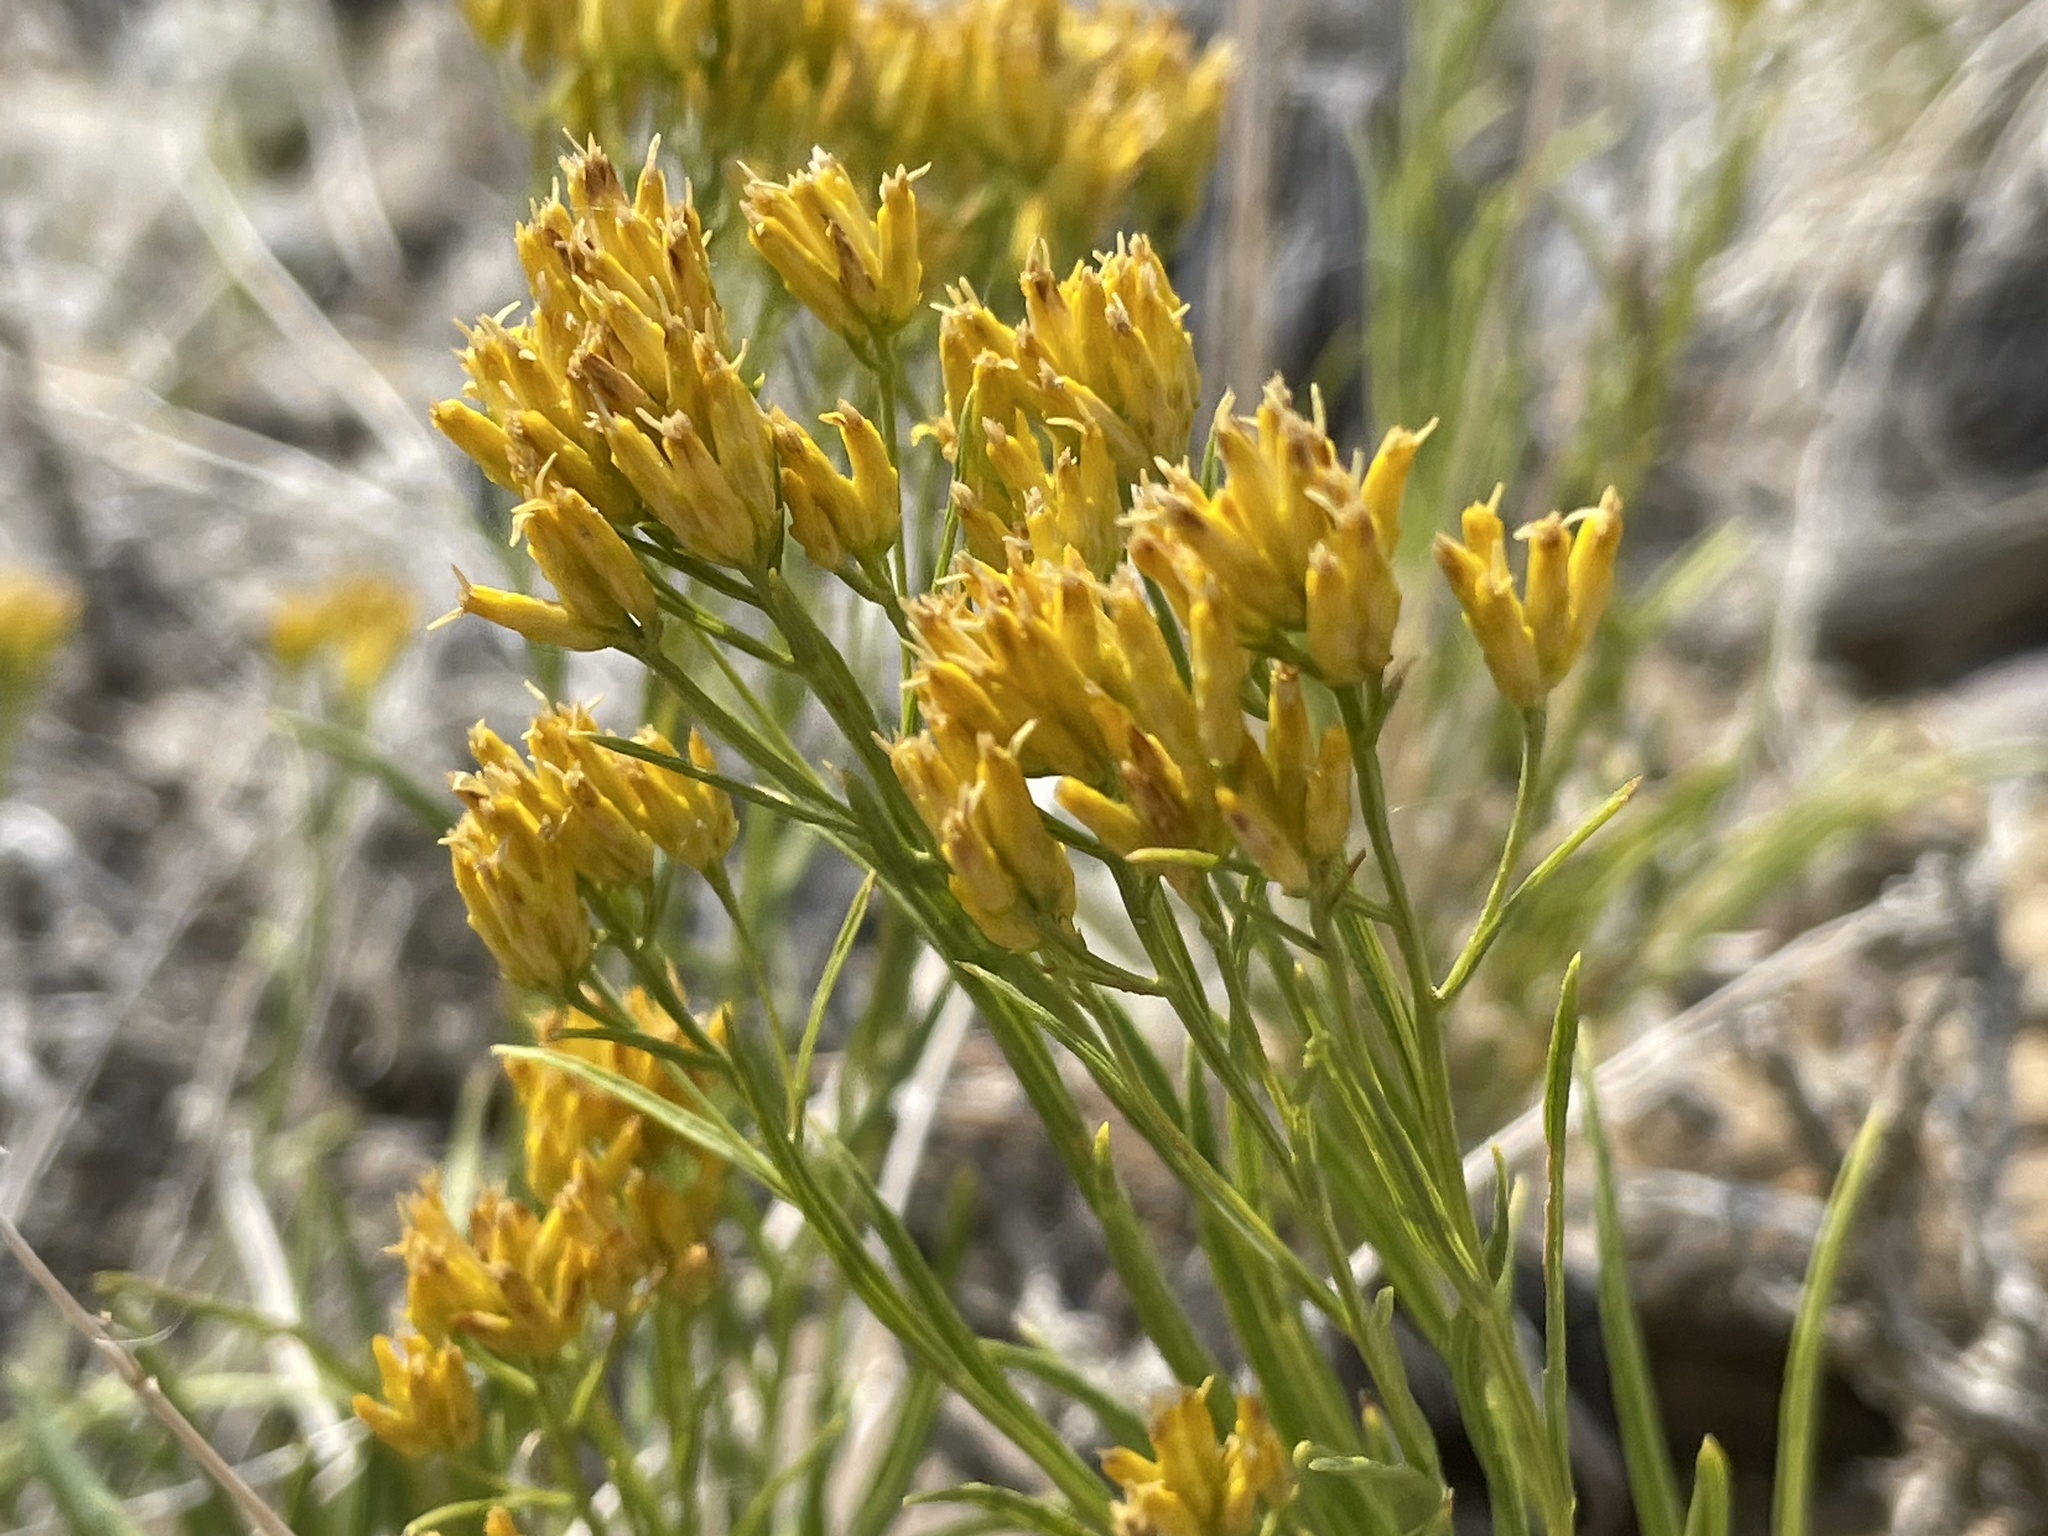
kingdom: Plantae
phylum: Tracheophyta
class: Magnoliopsida
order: Asterales
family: Asteraceae
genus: Petradoria
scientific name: Petradoria pumila
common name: Rock-goldenrod
